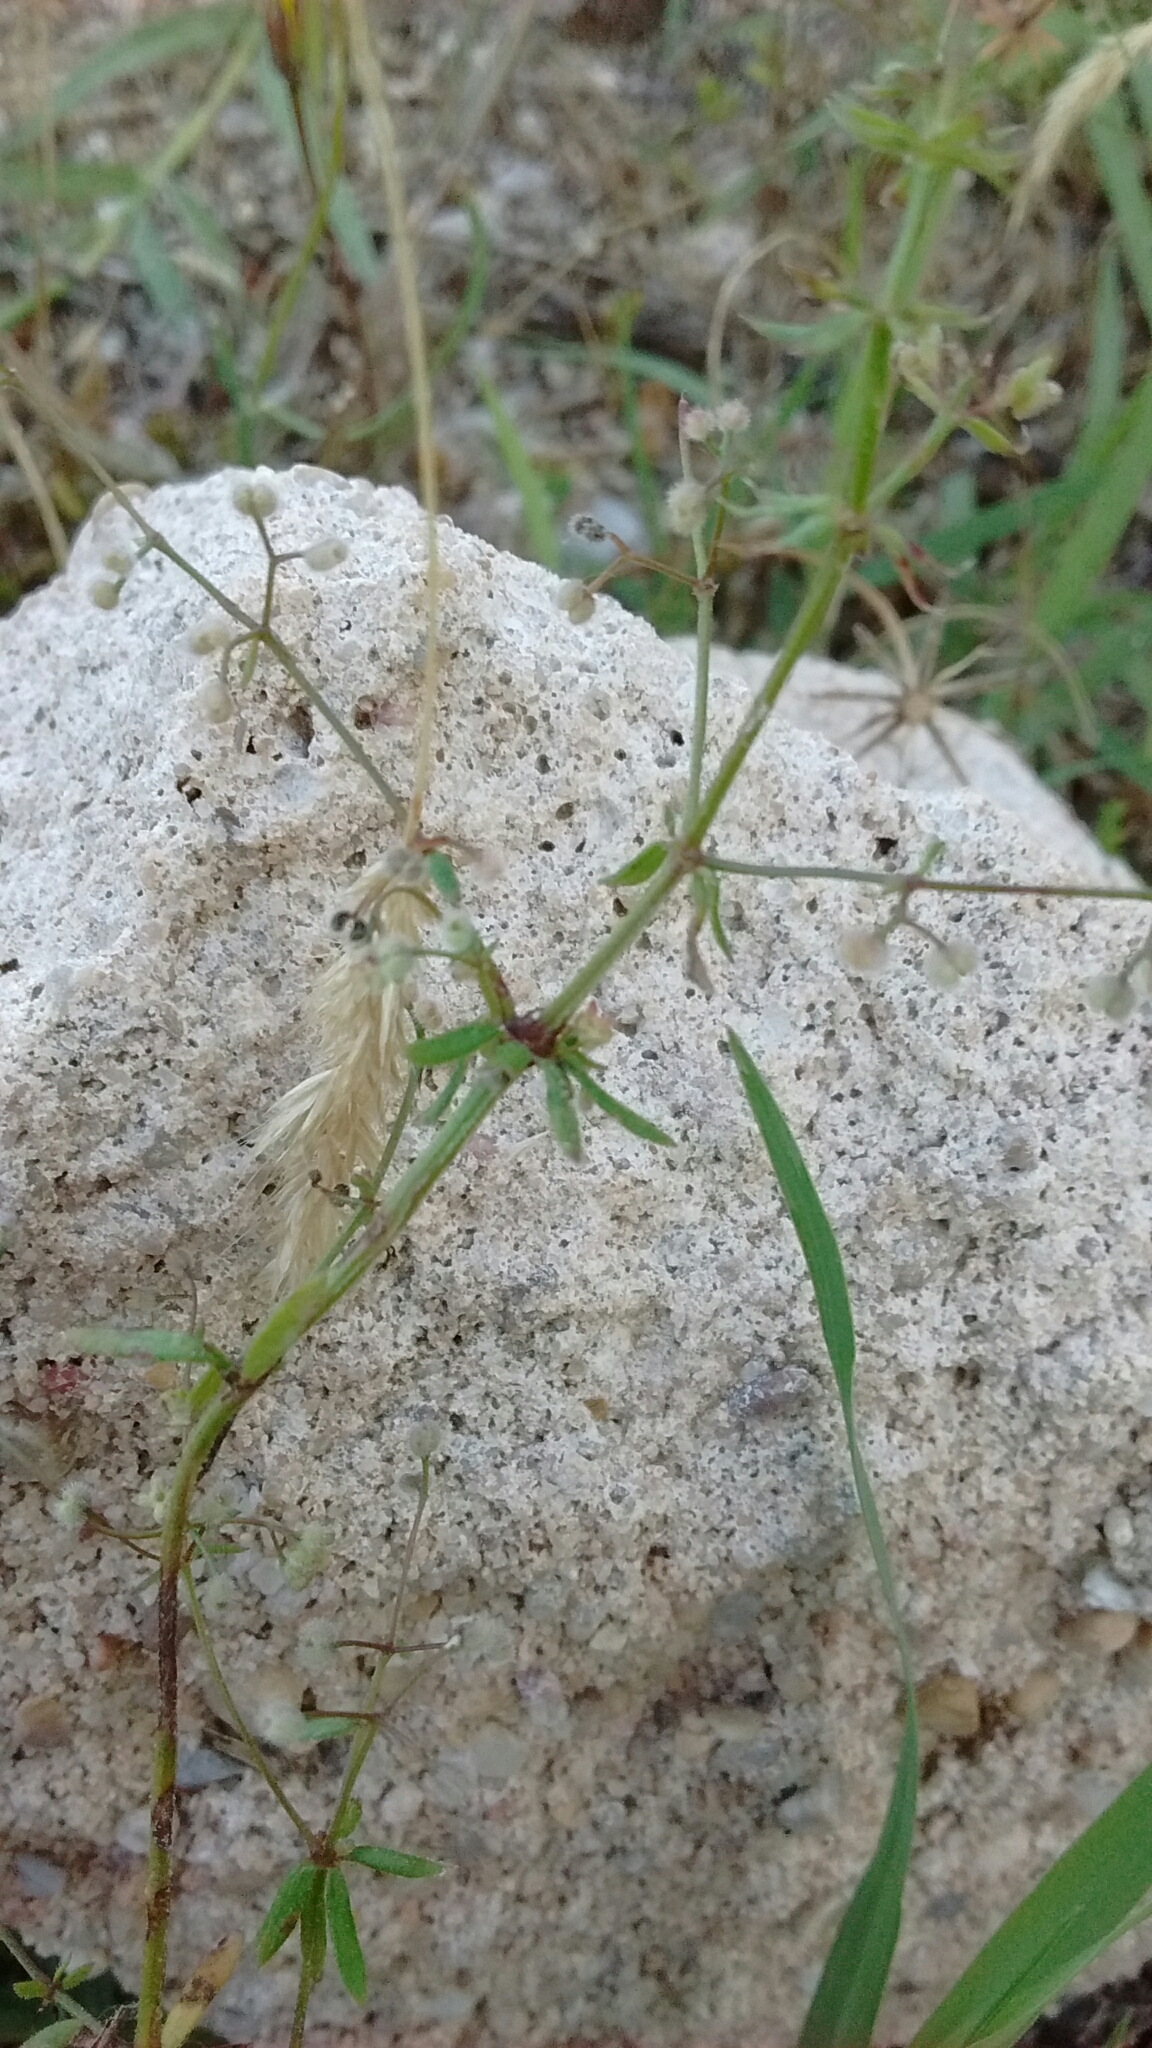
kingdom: Plantae
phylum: Tracheophyta
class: Magnoliopsida
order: Gentianales
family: Rubiaceae
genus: Galium
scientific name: Galium parisiense
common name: Wall bedstraw
